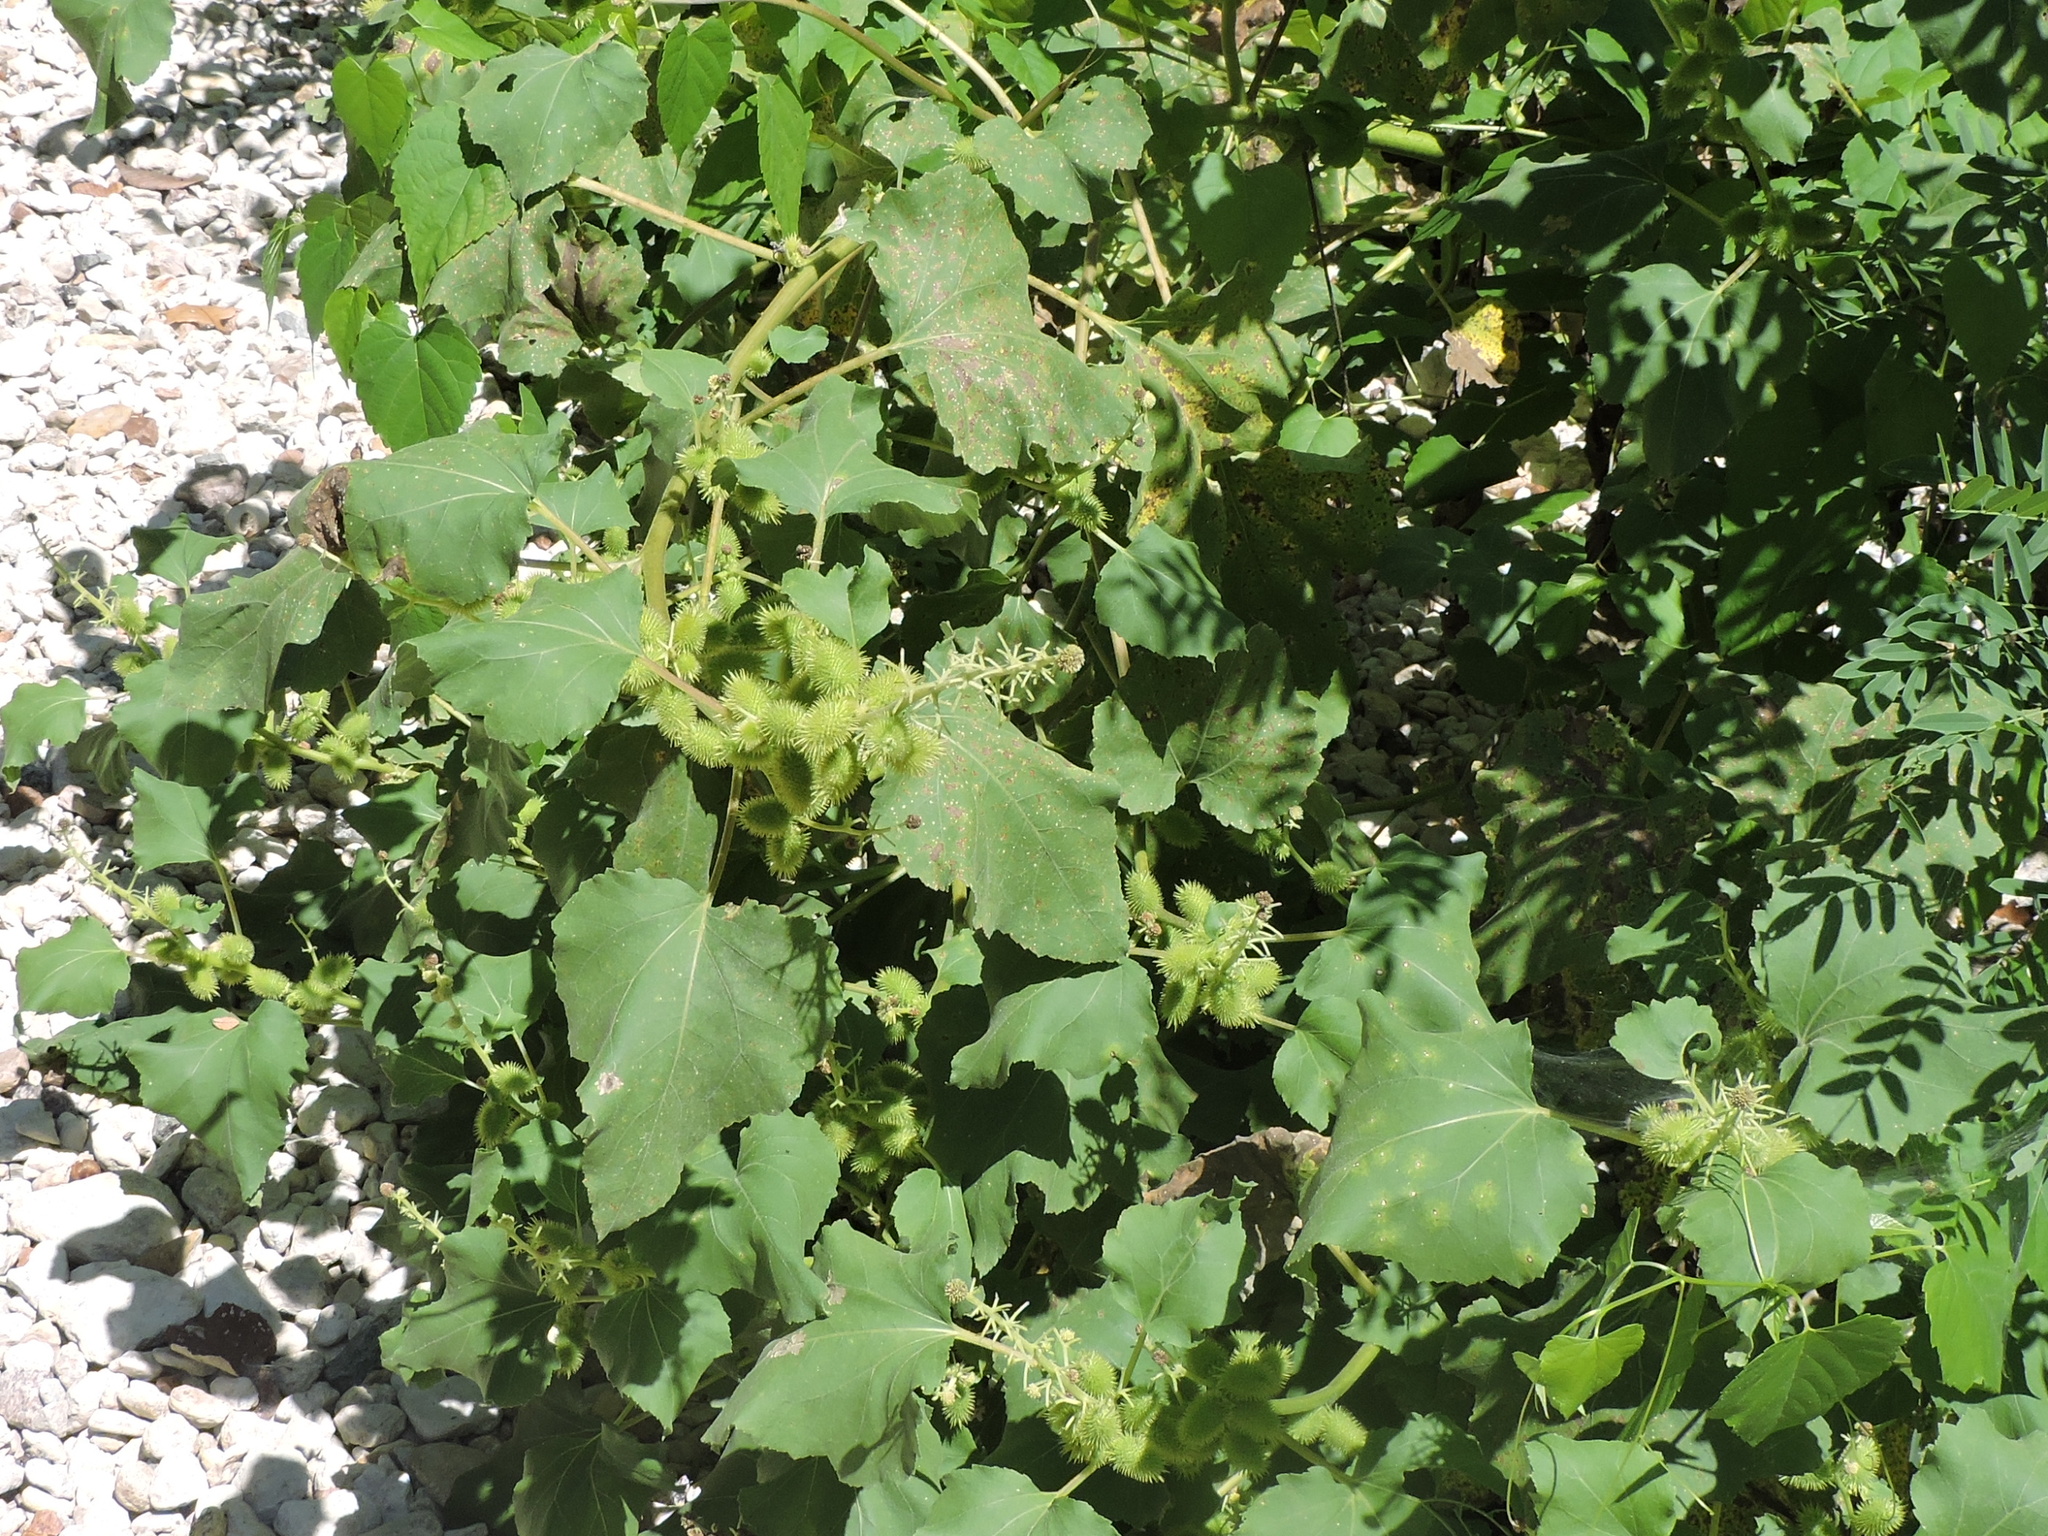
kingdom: Plantae
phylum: Tracheophyta
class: Magnoliopsida
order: Asterales
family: Asteraceae
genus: Xanthium
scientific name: Xanthium strumarium
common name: Rough cocklebur
